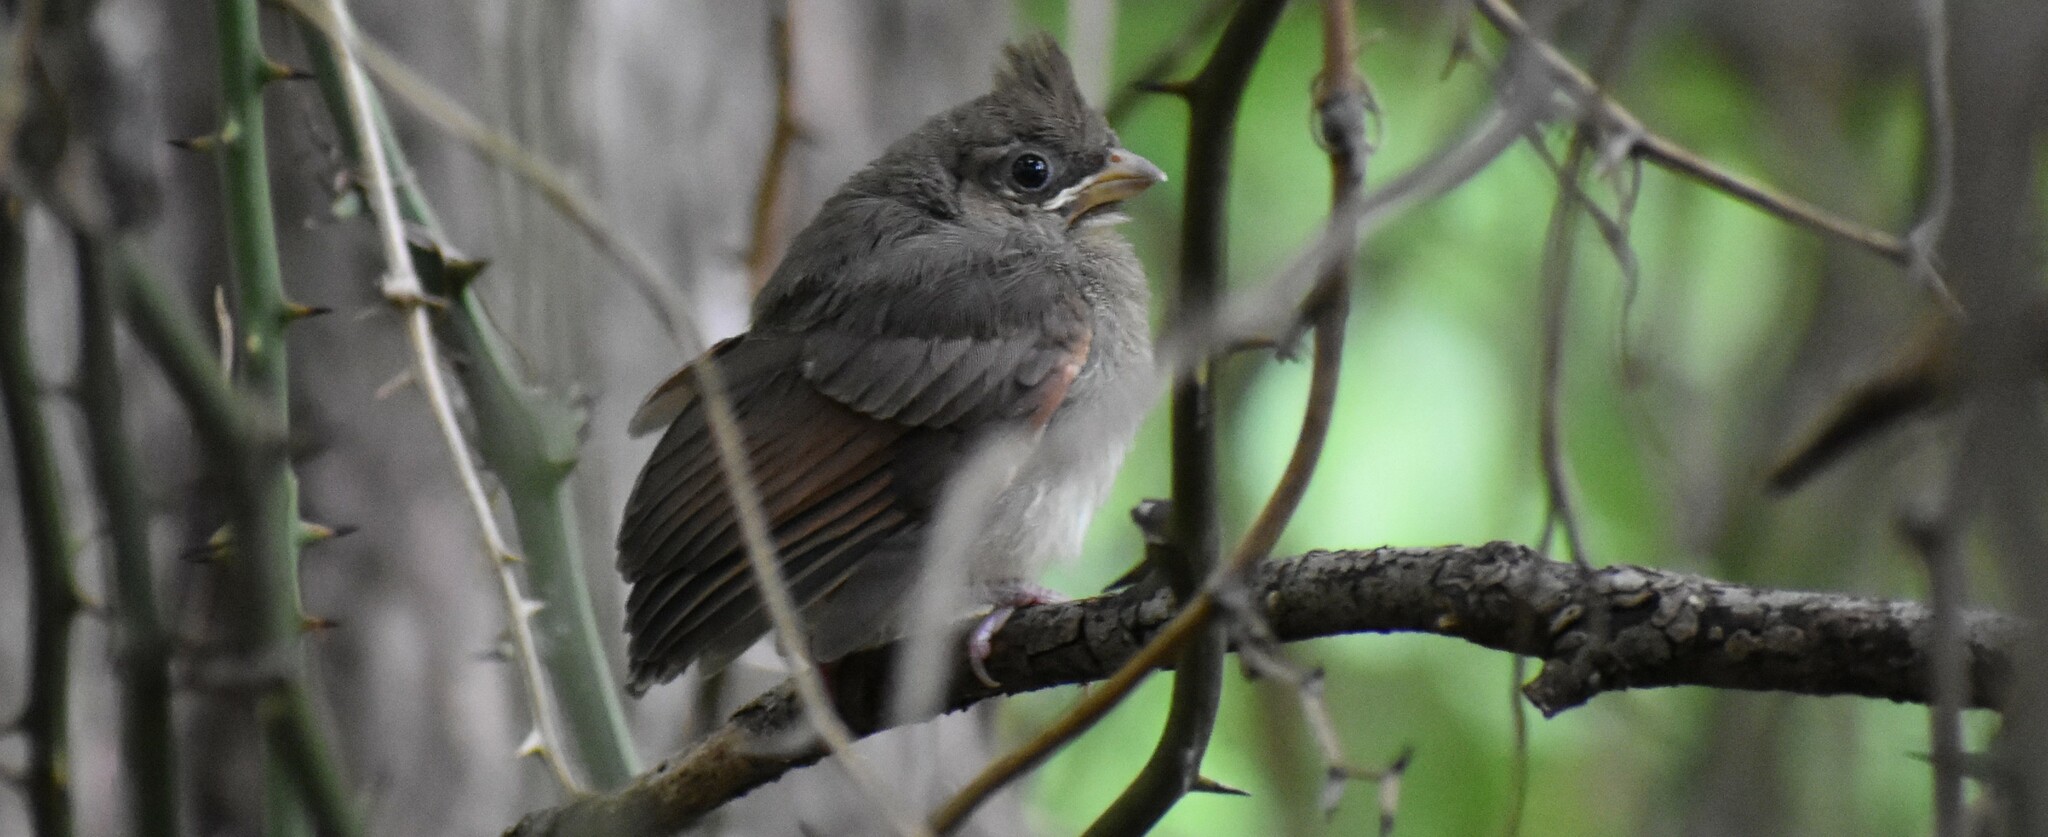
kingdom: Animalia
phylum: Chordata
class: Aves
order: Passeriformes
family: Cardinalidae
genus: Cardinalis
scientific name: Cardinalis cardinalis
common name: Northern cardinal
